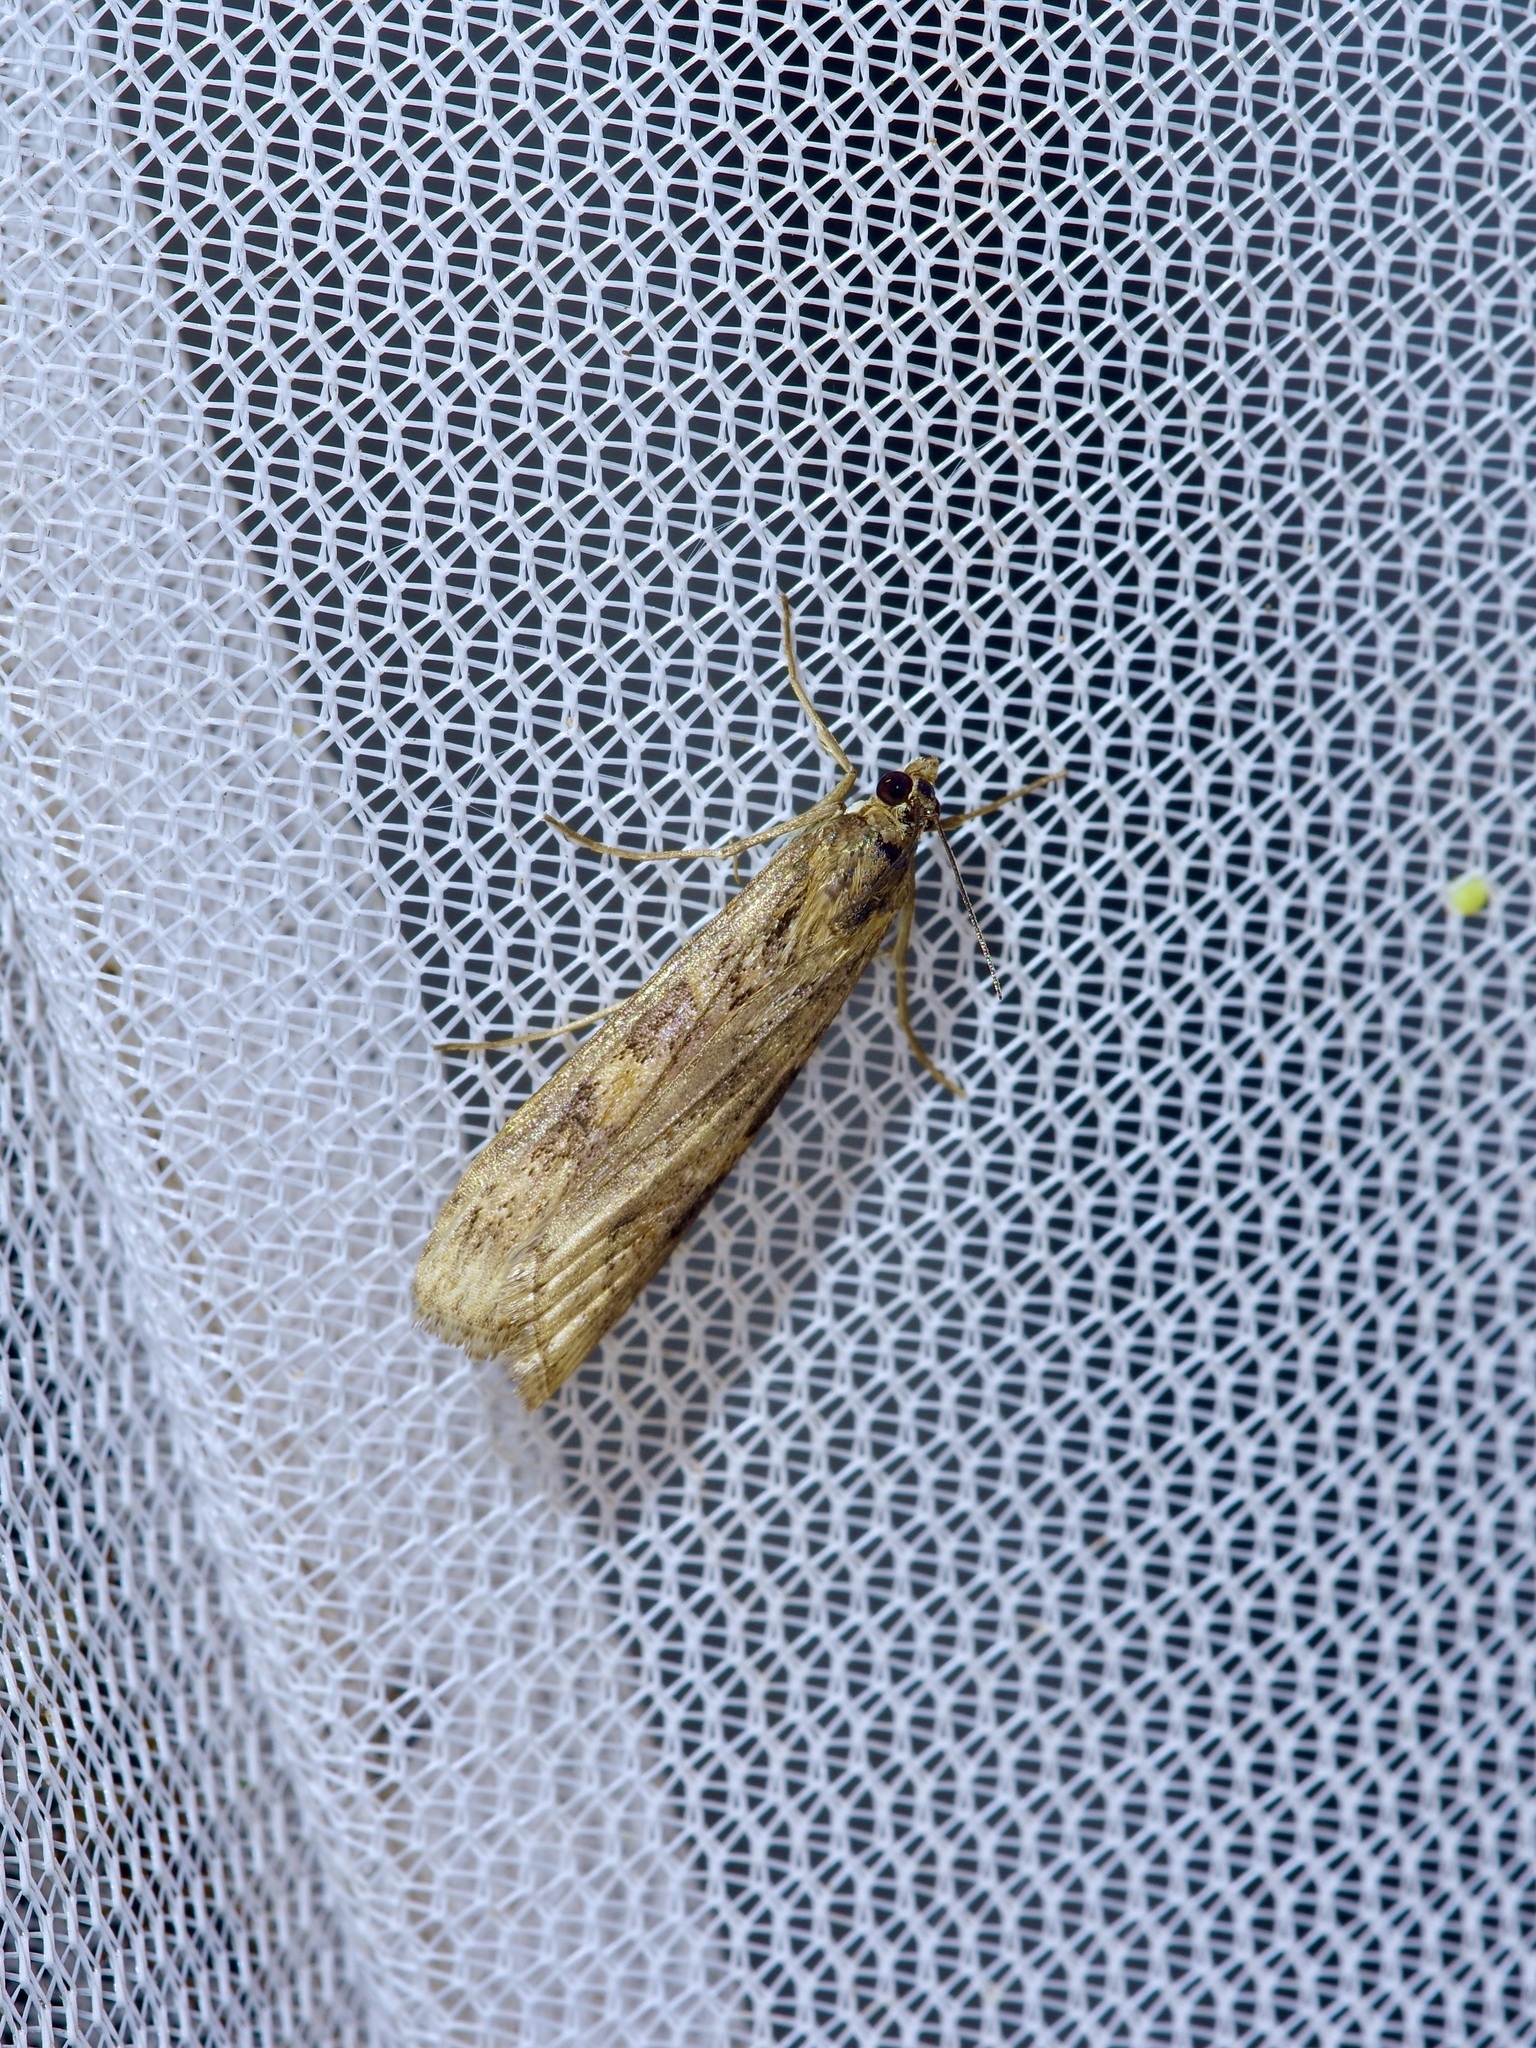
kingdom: Animalia
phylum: Arthropoda
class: Insecta
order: Lepidoptera
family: Crambidae
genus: Nomophila
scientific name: Nomophila nearctica
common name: American rush veneer
